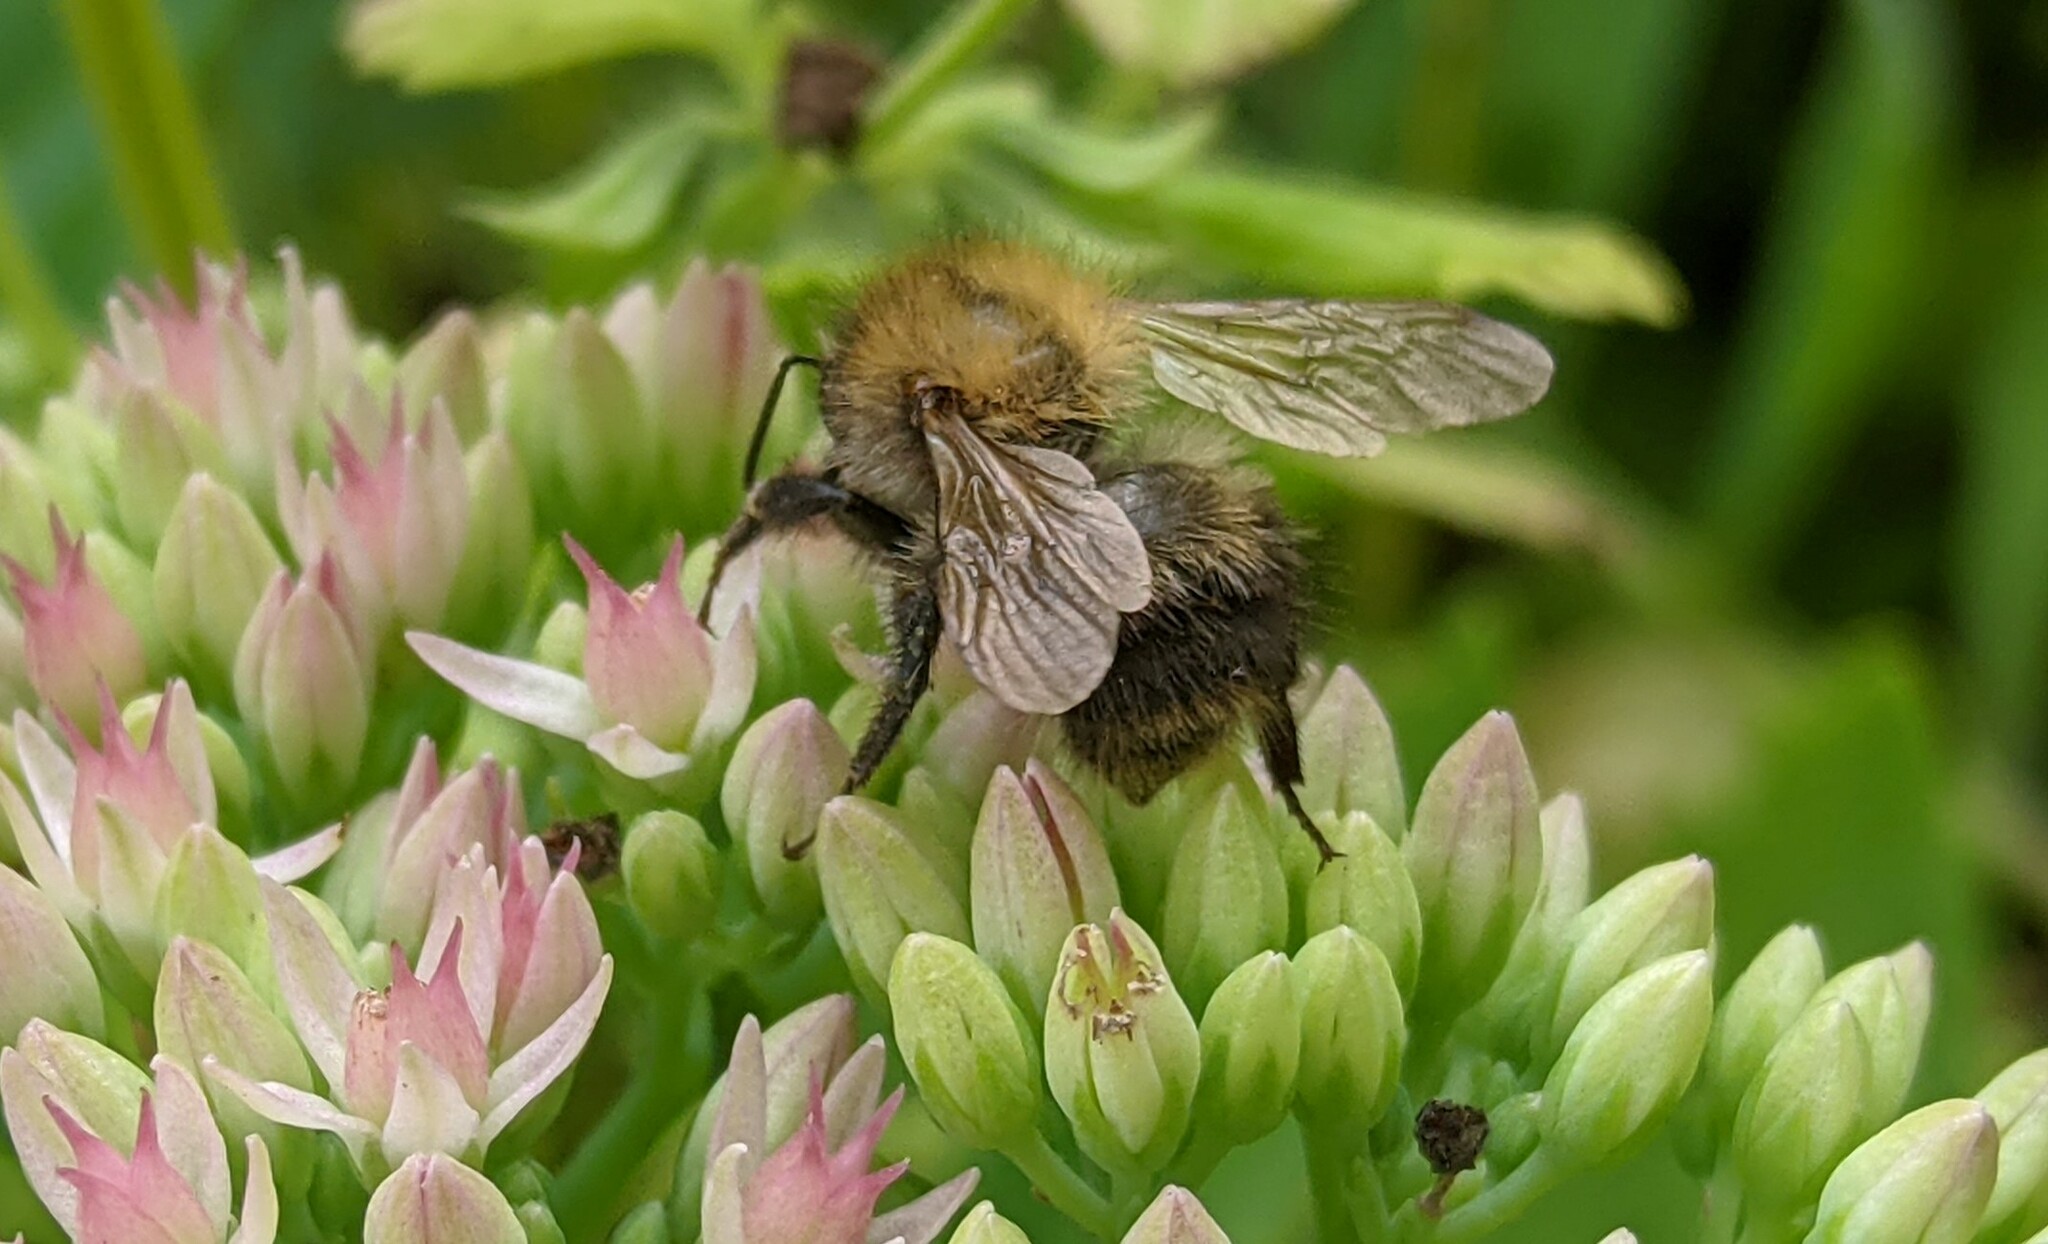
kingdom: Animalia
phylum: Arthropoda
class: Insecta
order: Hymenoptera
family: Apidae
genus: Bombus
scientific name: Bombus pascuorum
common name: Common carder bee
